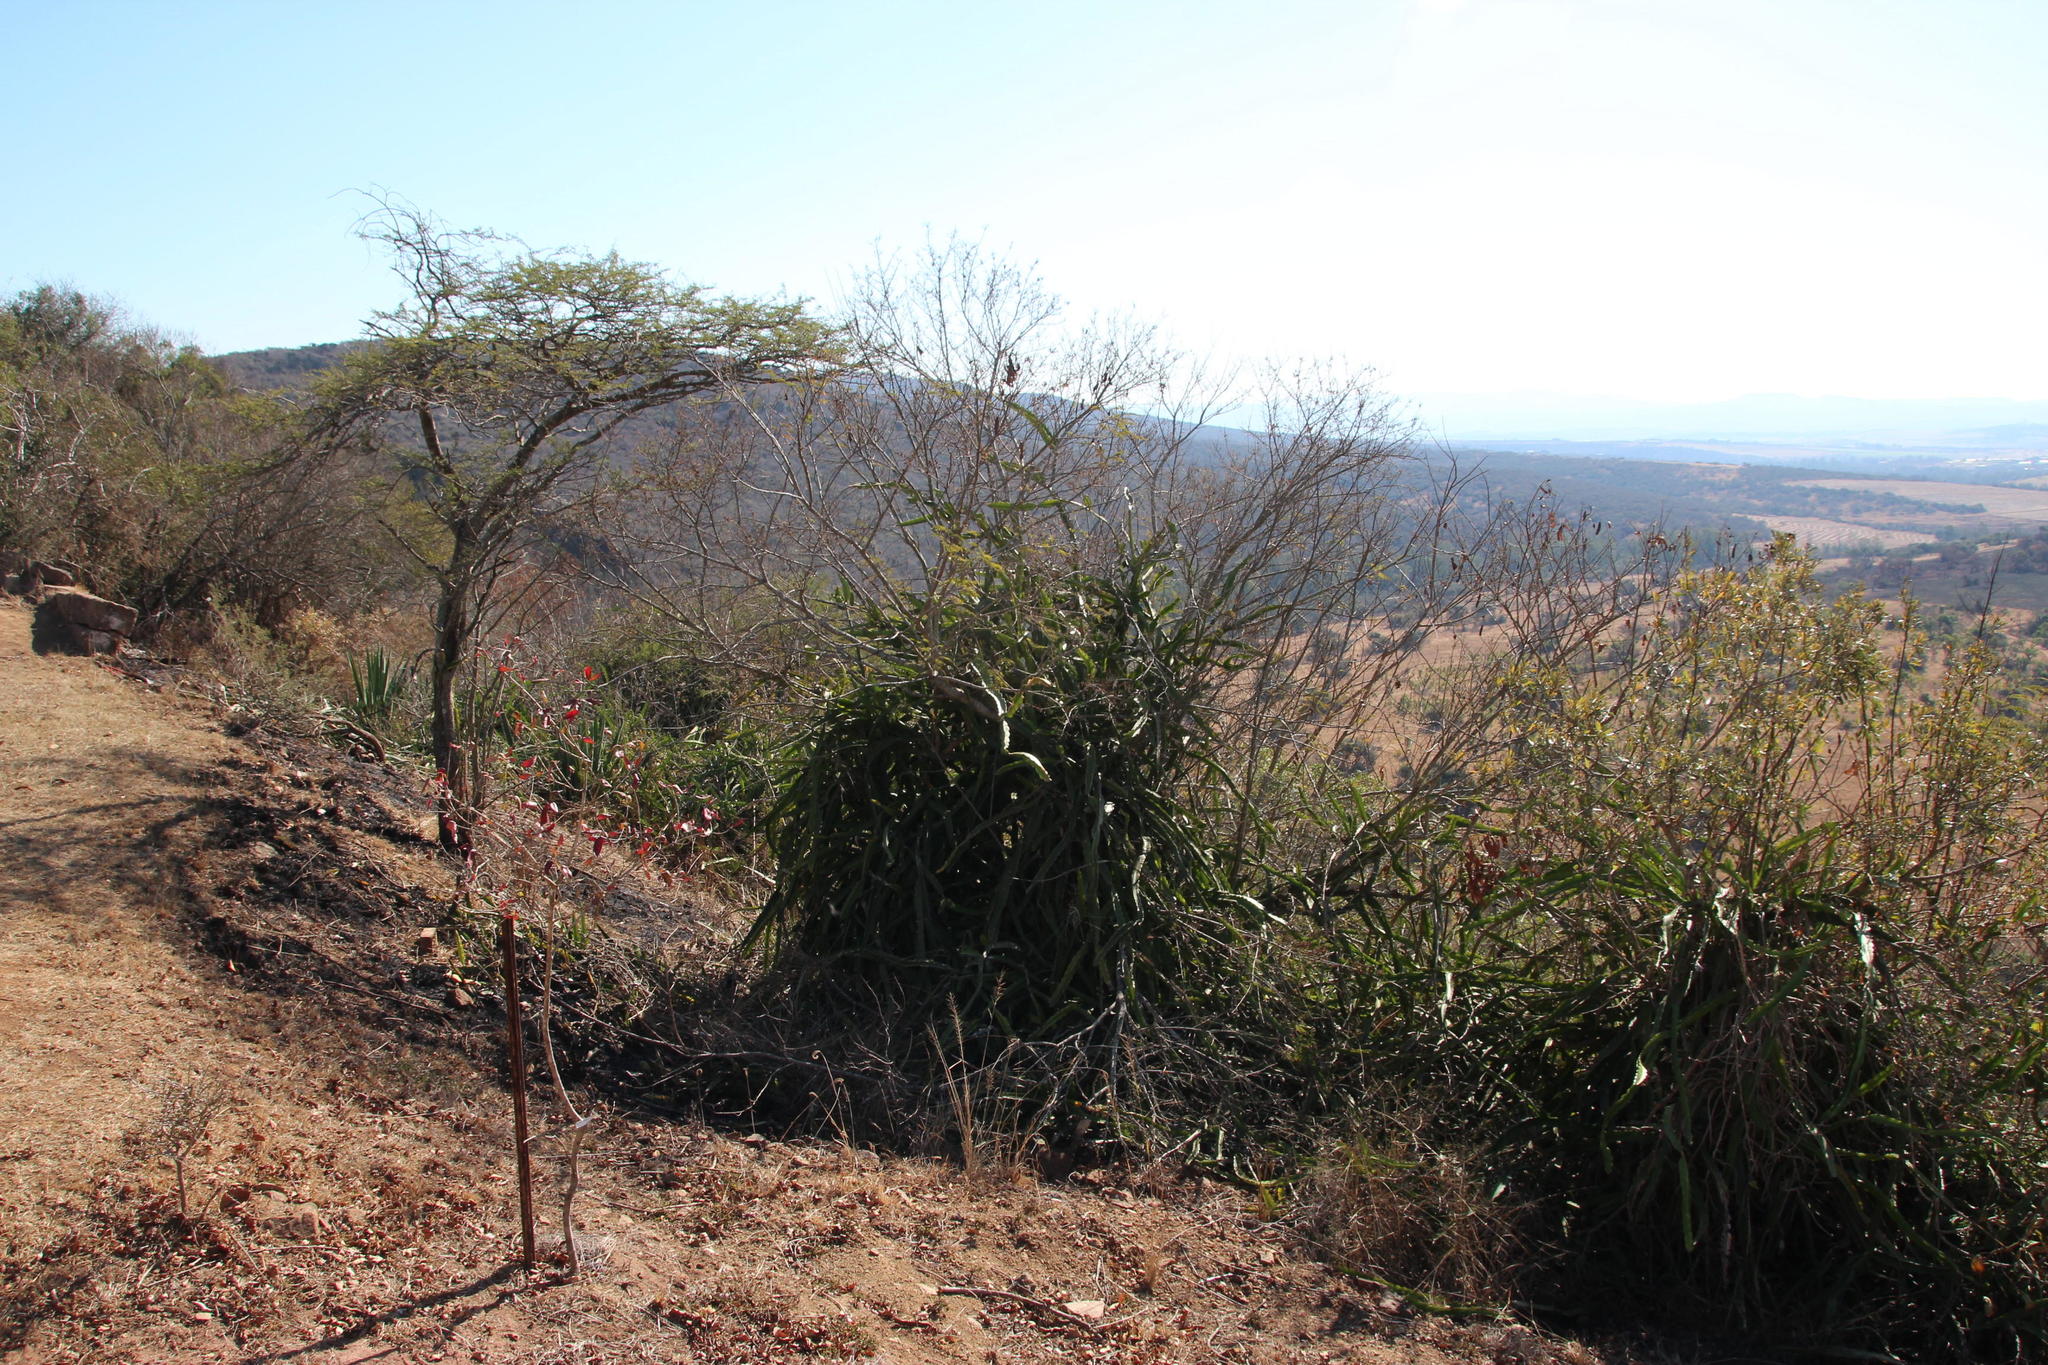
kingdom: Plantae
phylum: Tracheophyta
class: Magnoliopsida
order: Caryophyllales
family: Cactaceae
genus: Selenicereus
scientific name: Selenicereus undatus
